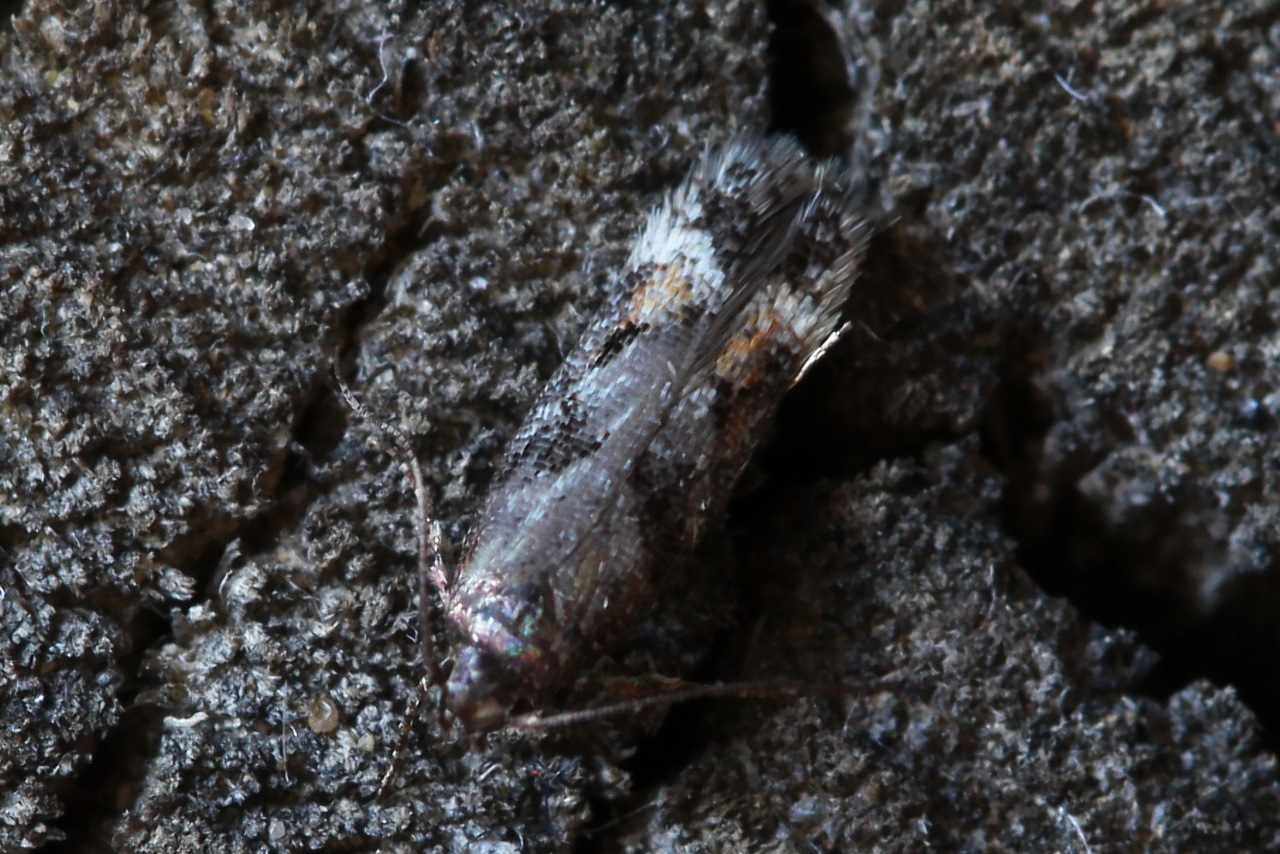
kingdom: Animalia
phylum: Arthropoda
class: Insecta
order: Lepidoptera
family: Gelechiidae
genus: Caryocolum
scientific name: Caryocolum junctella
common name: Confluent groundling
